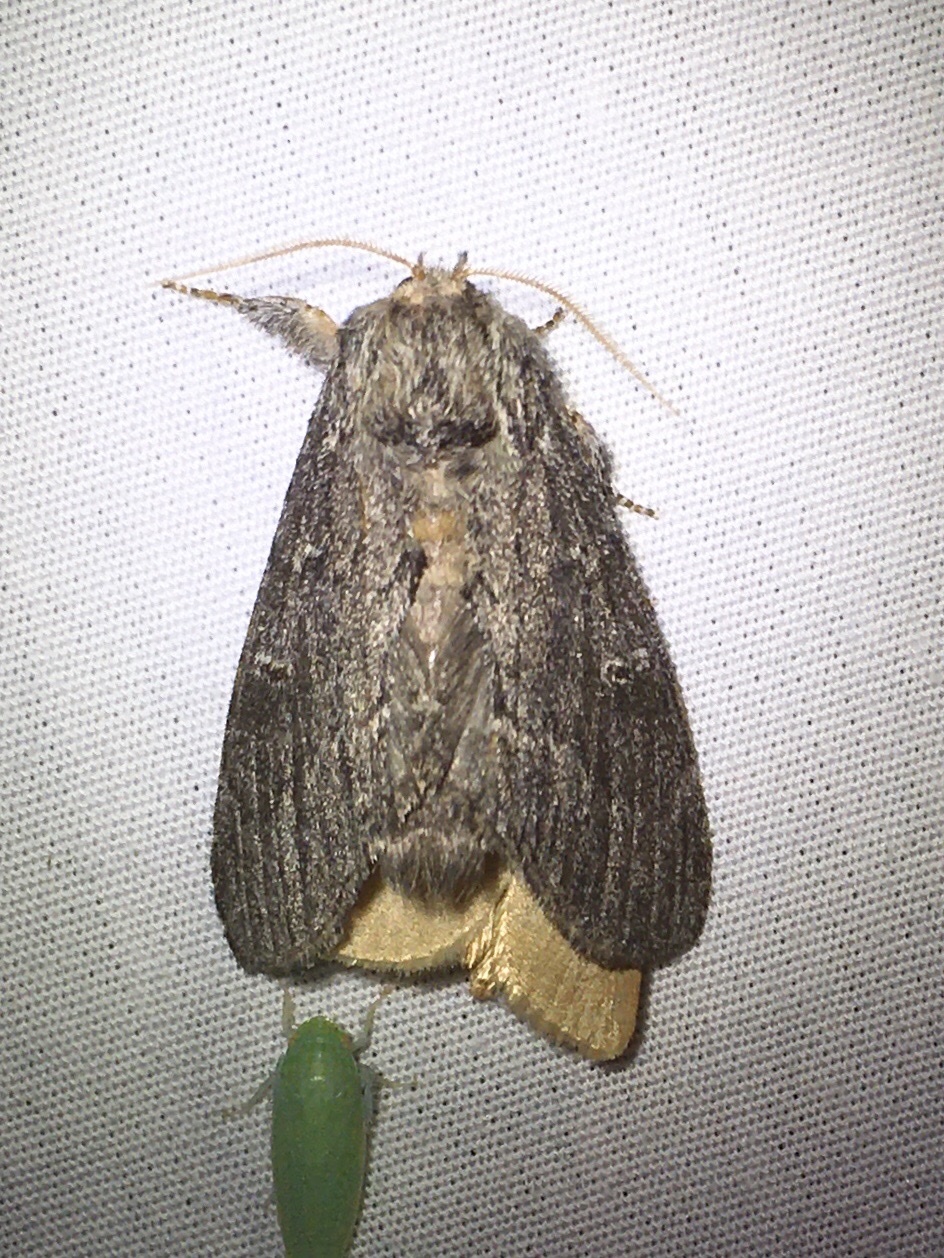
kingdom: Animalia
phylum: Arthropoda
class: Insecta
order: Lepidoptera
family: Notodontidae
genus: Notodonta
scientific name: Notodonta torva
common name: Large dark prominent
